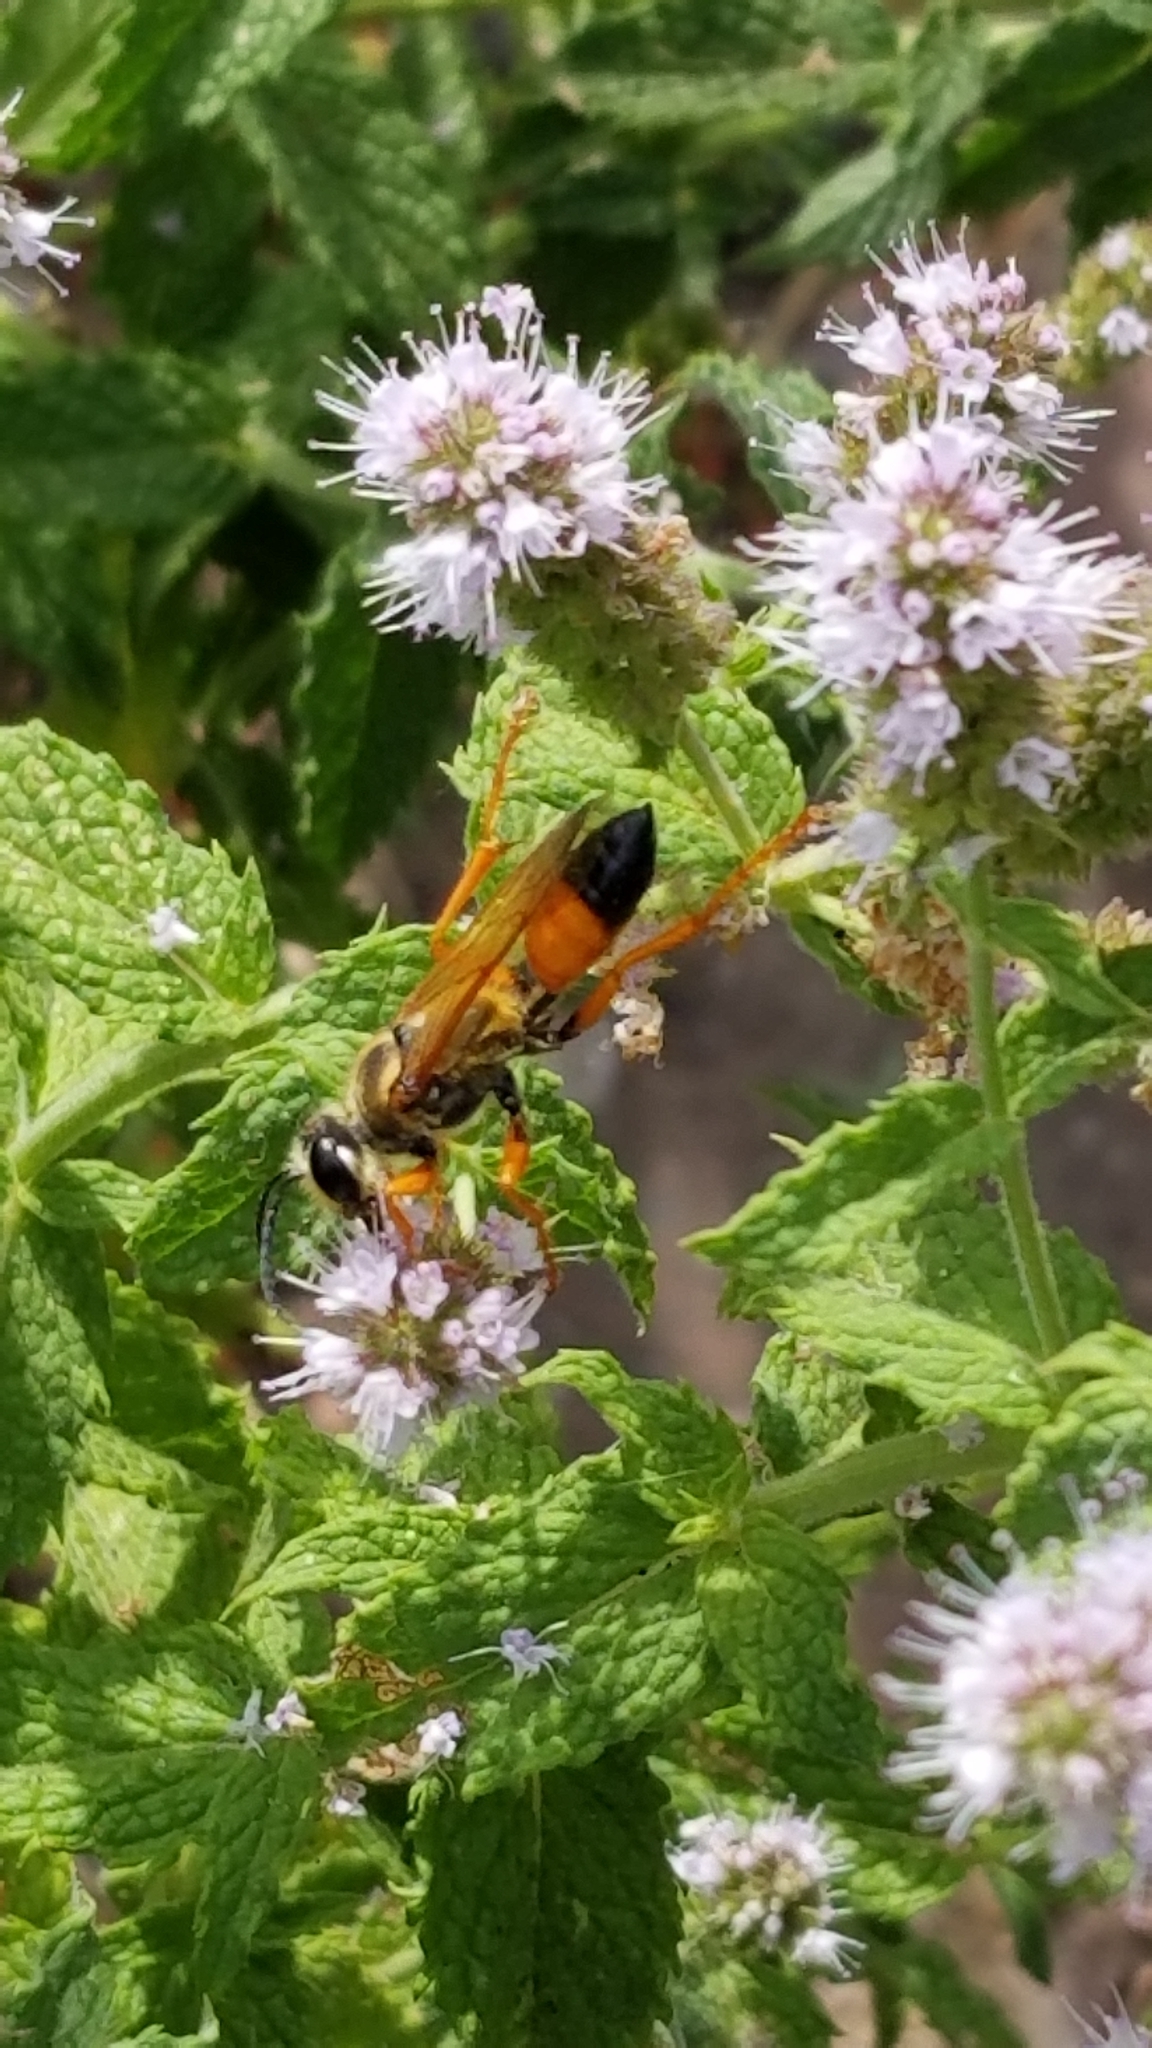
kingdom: Animalia
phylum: Arthropoda
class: Insecta
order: Hymenoptera
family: Sphecidae
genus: Sphex
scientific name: Sphex ichneumoneus
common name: Great golden digger wasp
